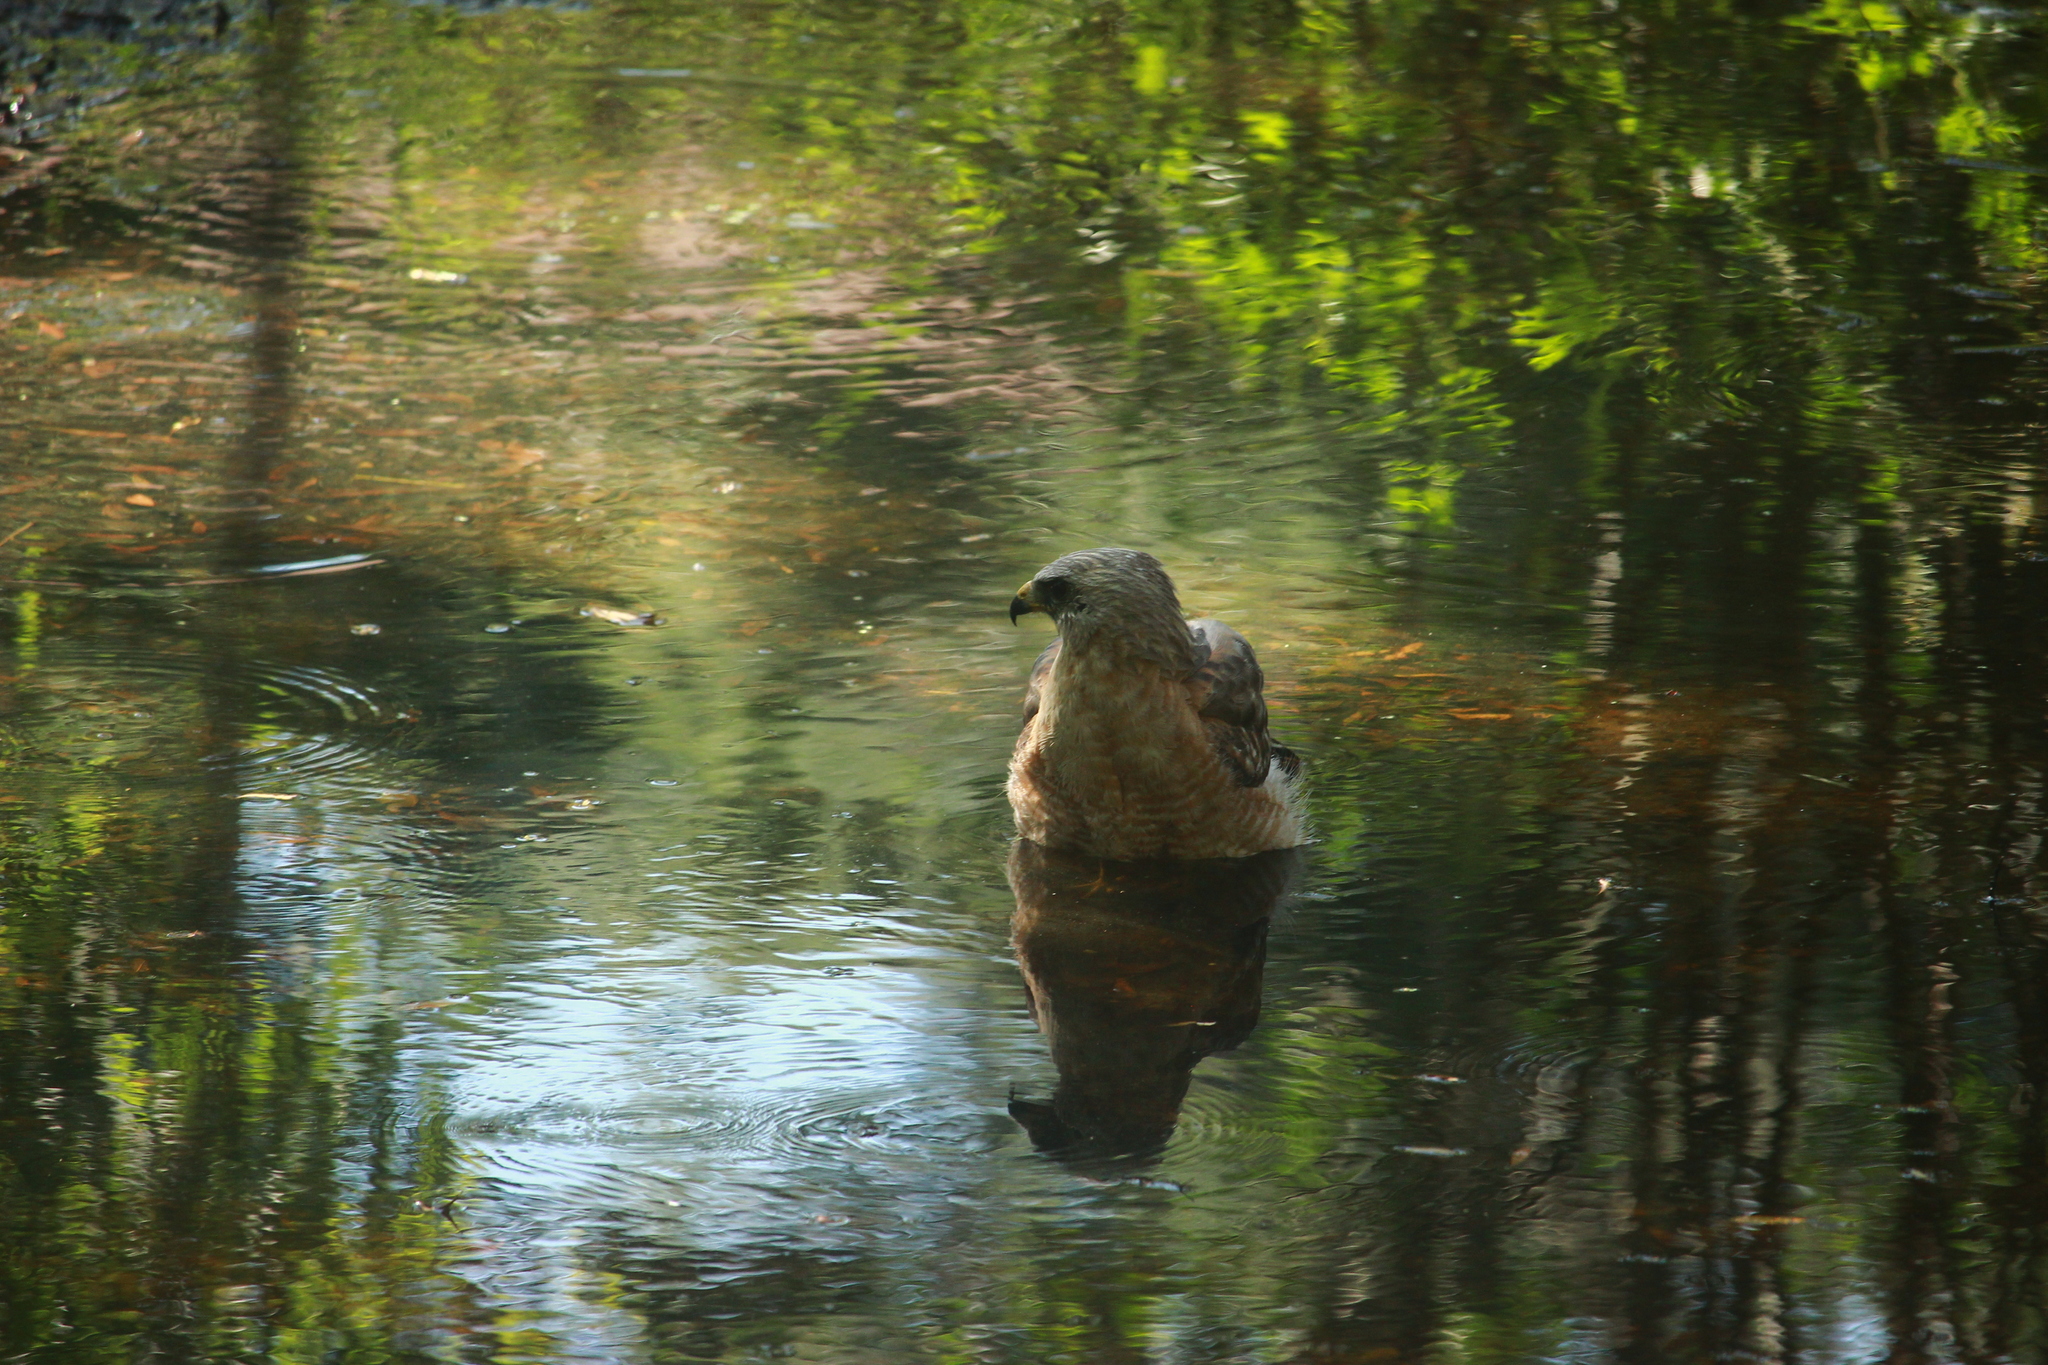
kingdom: Animalia
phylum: Chordata
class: Aves
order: Accipitriformes
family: Accipitridae
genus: Buteo
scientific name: Buteo lineatus
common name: Red-shouldered hawk
